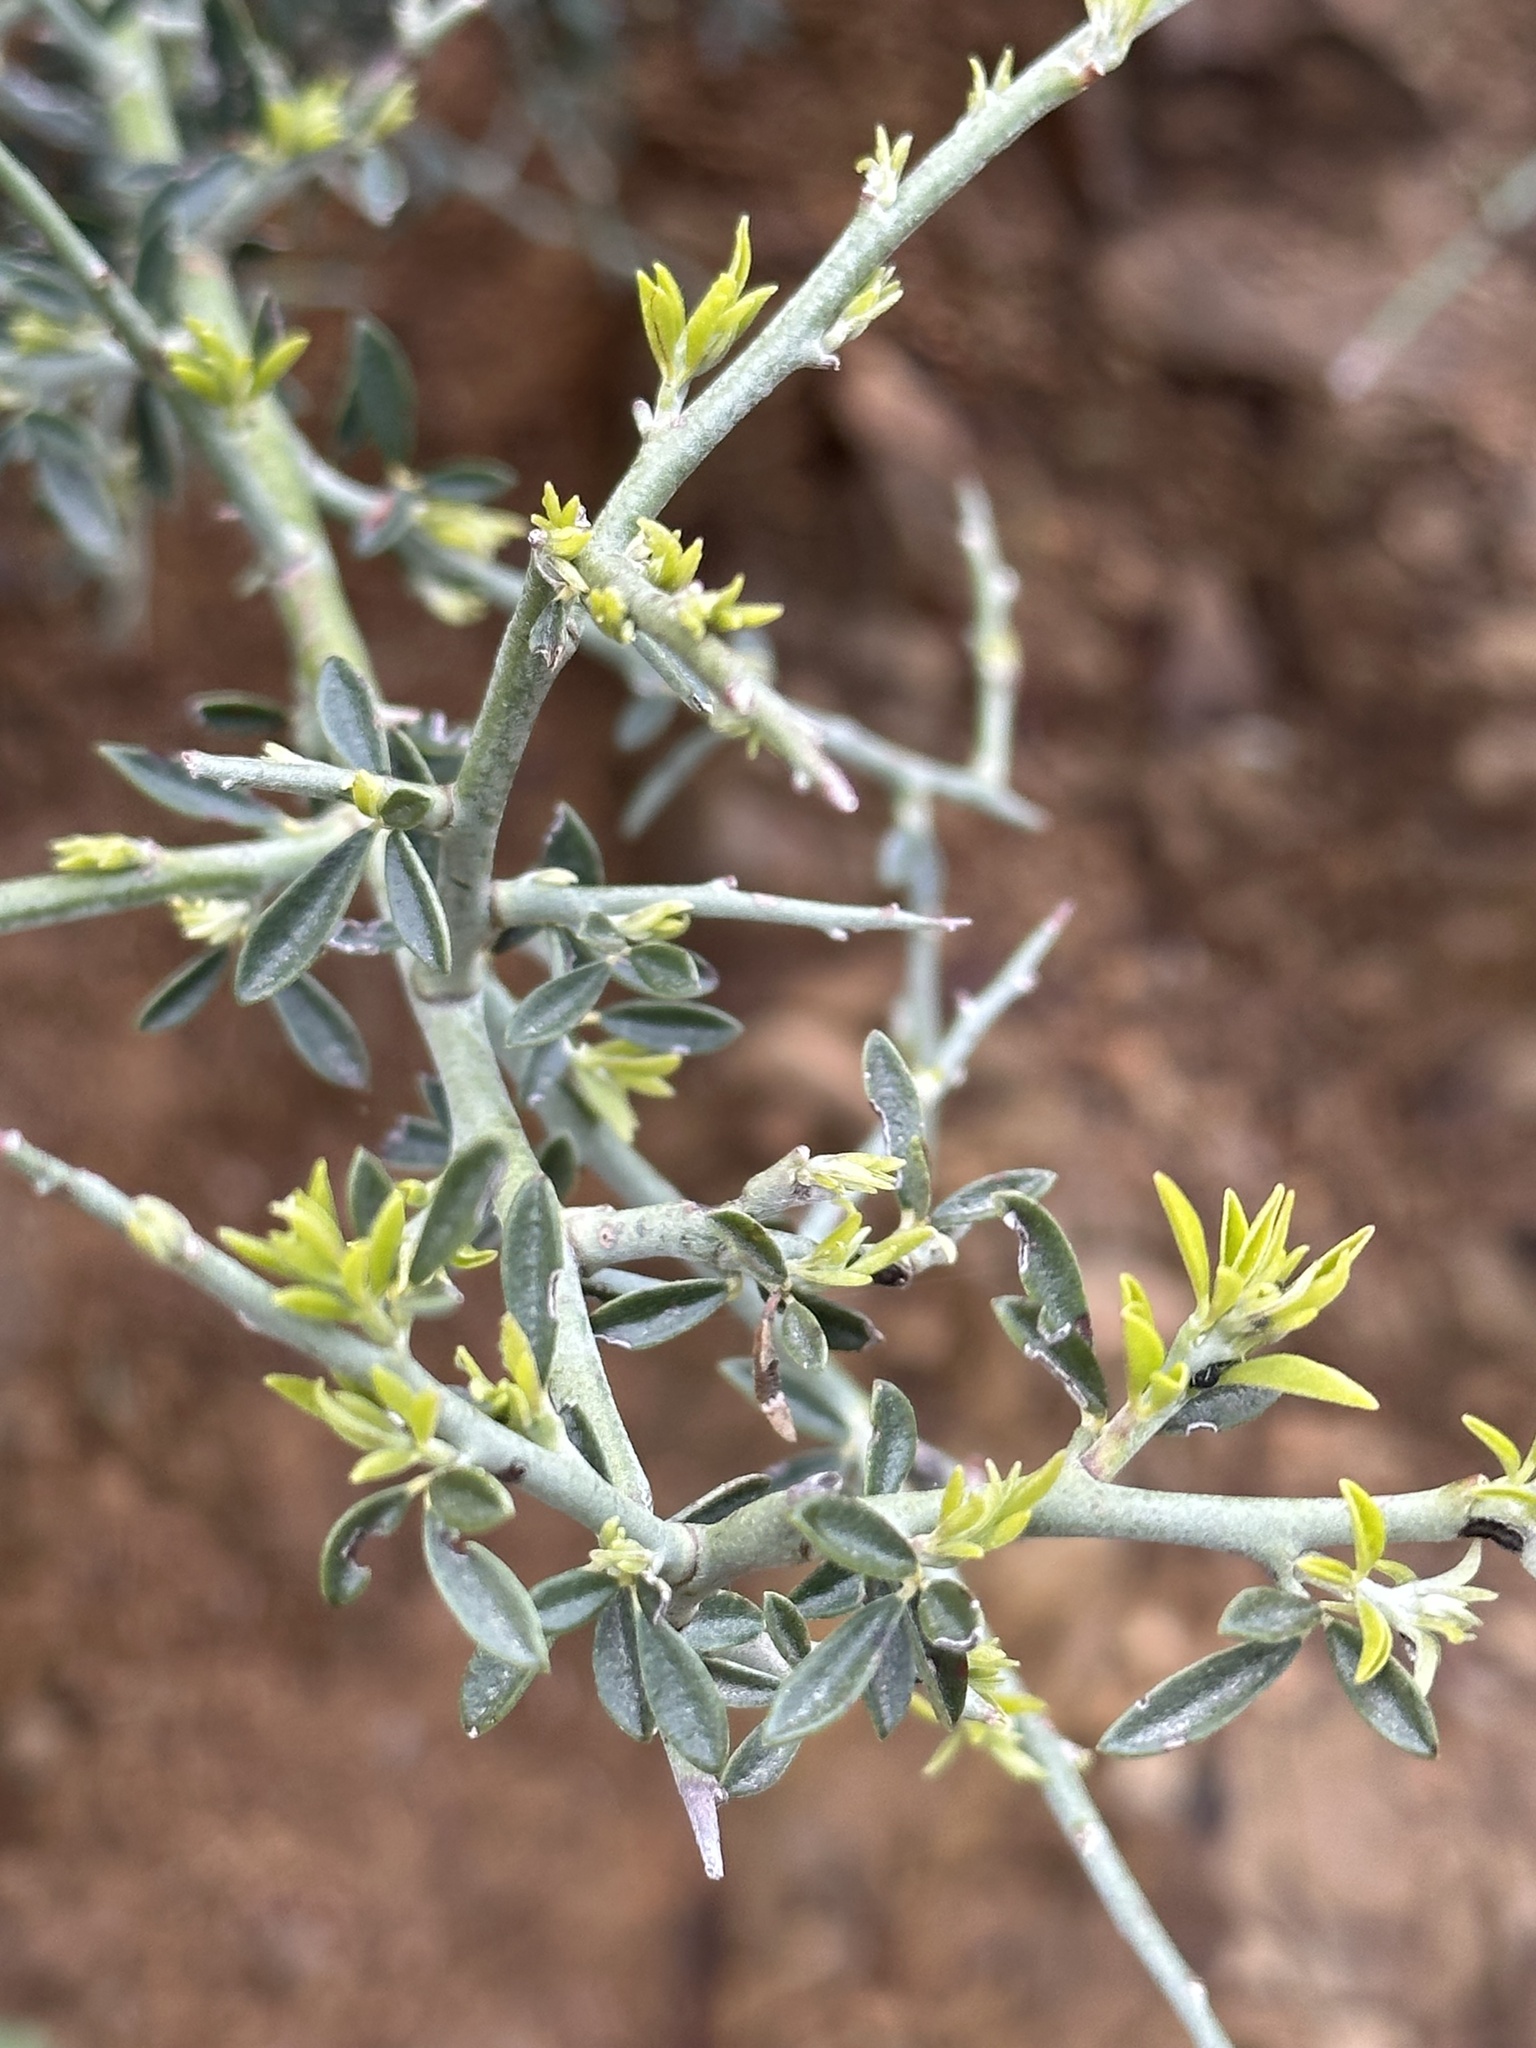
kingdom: Plantae
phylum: Tracheophyta
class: Magnoliopsida
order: Fabales
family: Fabaceae
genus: Pickeringia
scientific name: Pickeringia montana
